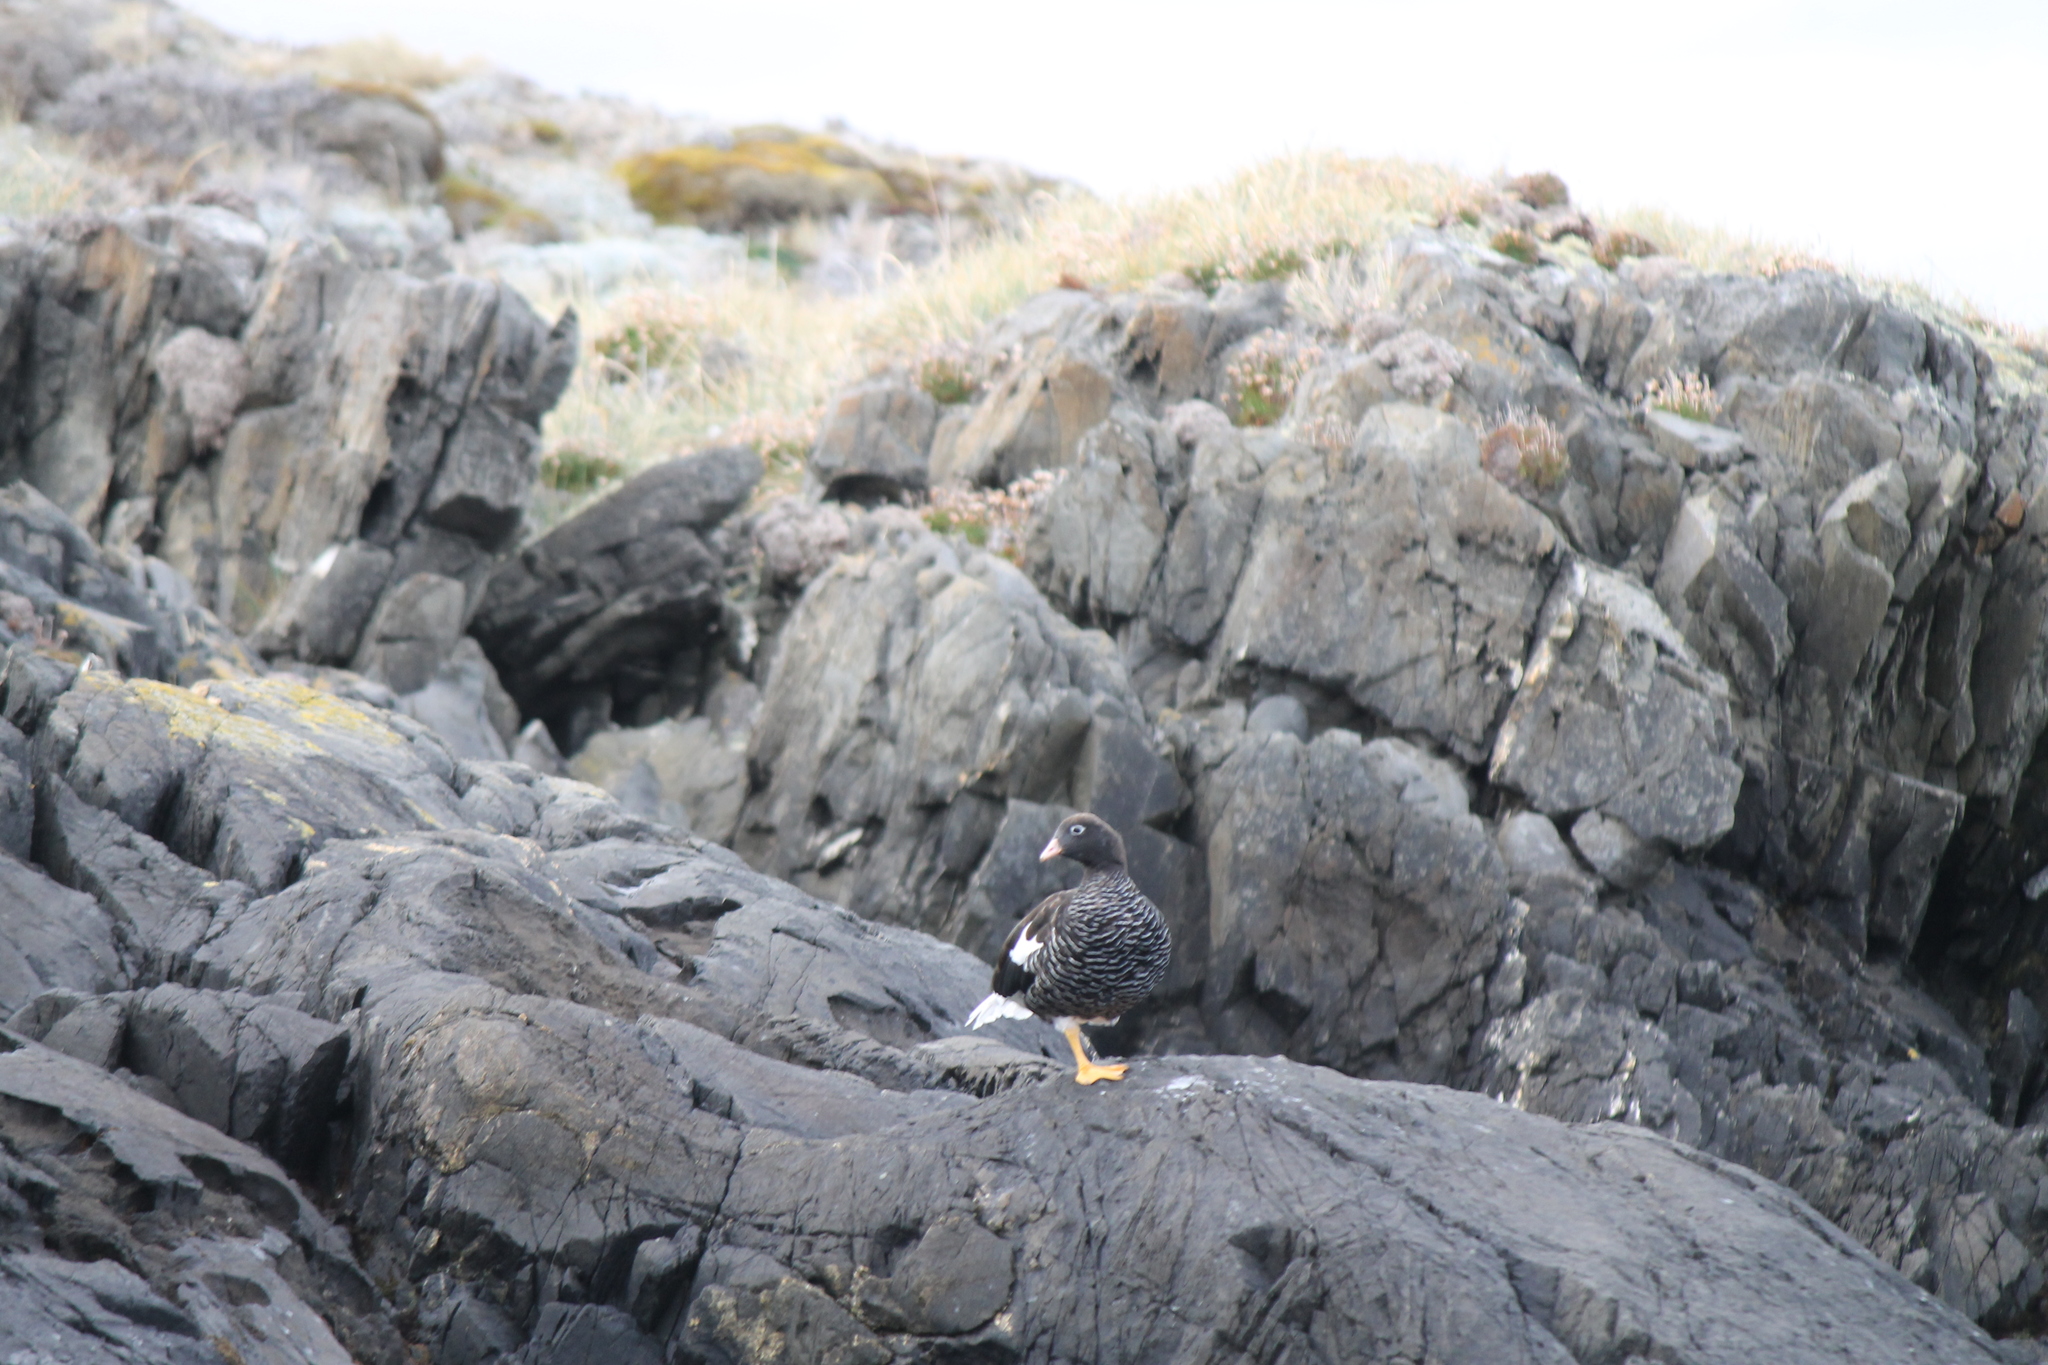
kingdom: Animalia
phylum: Chordata
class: Aves
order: Anseriformes
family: Anatidae
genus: Chloephaga
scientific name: Chloephaga hybrida
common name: Kelp goose
